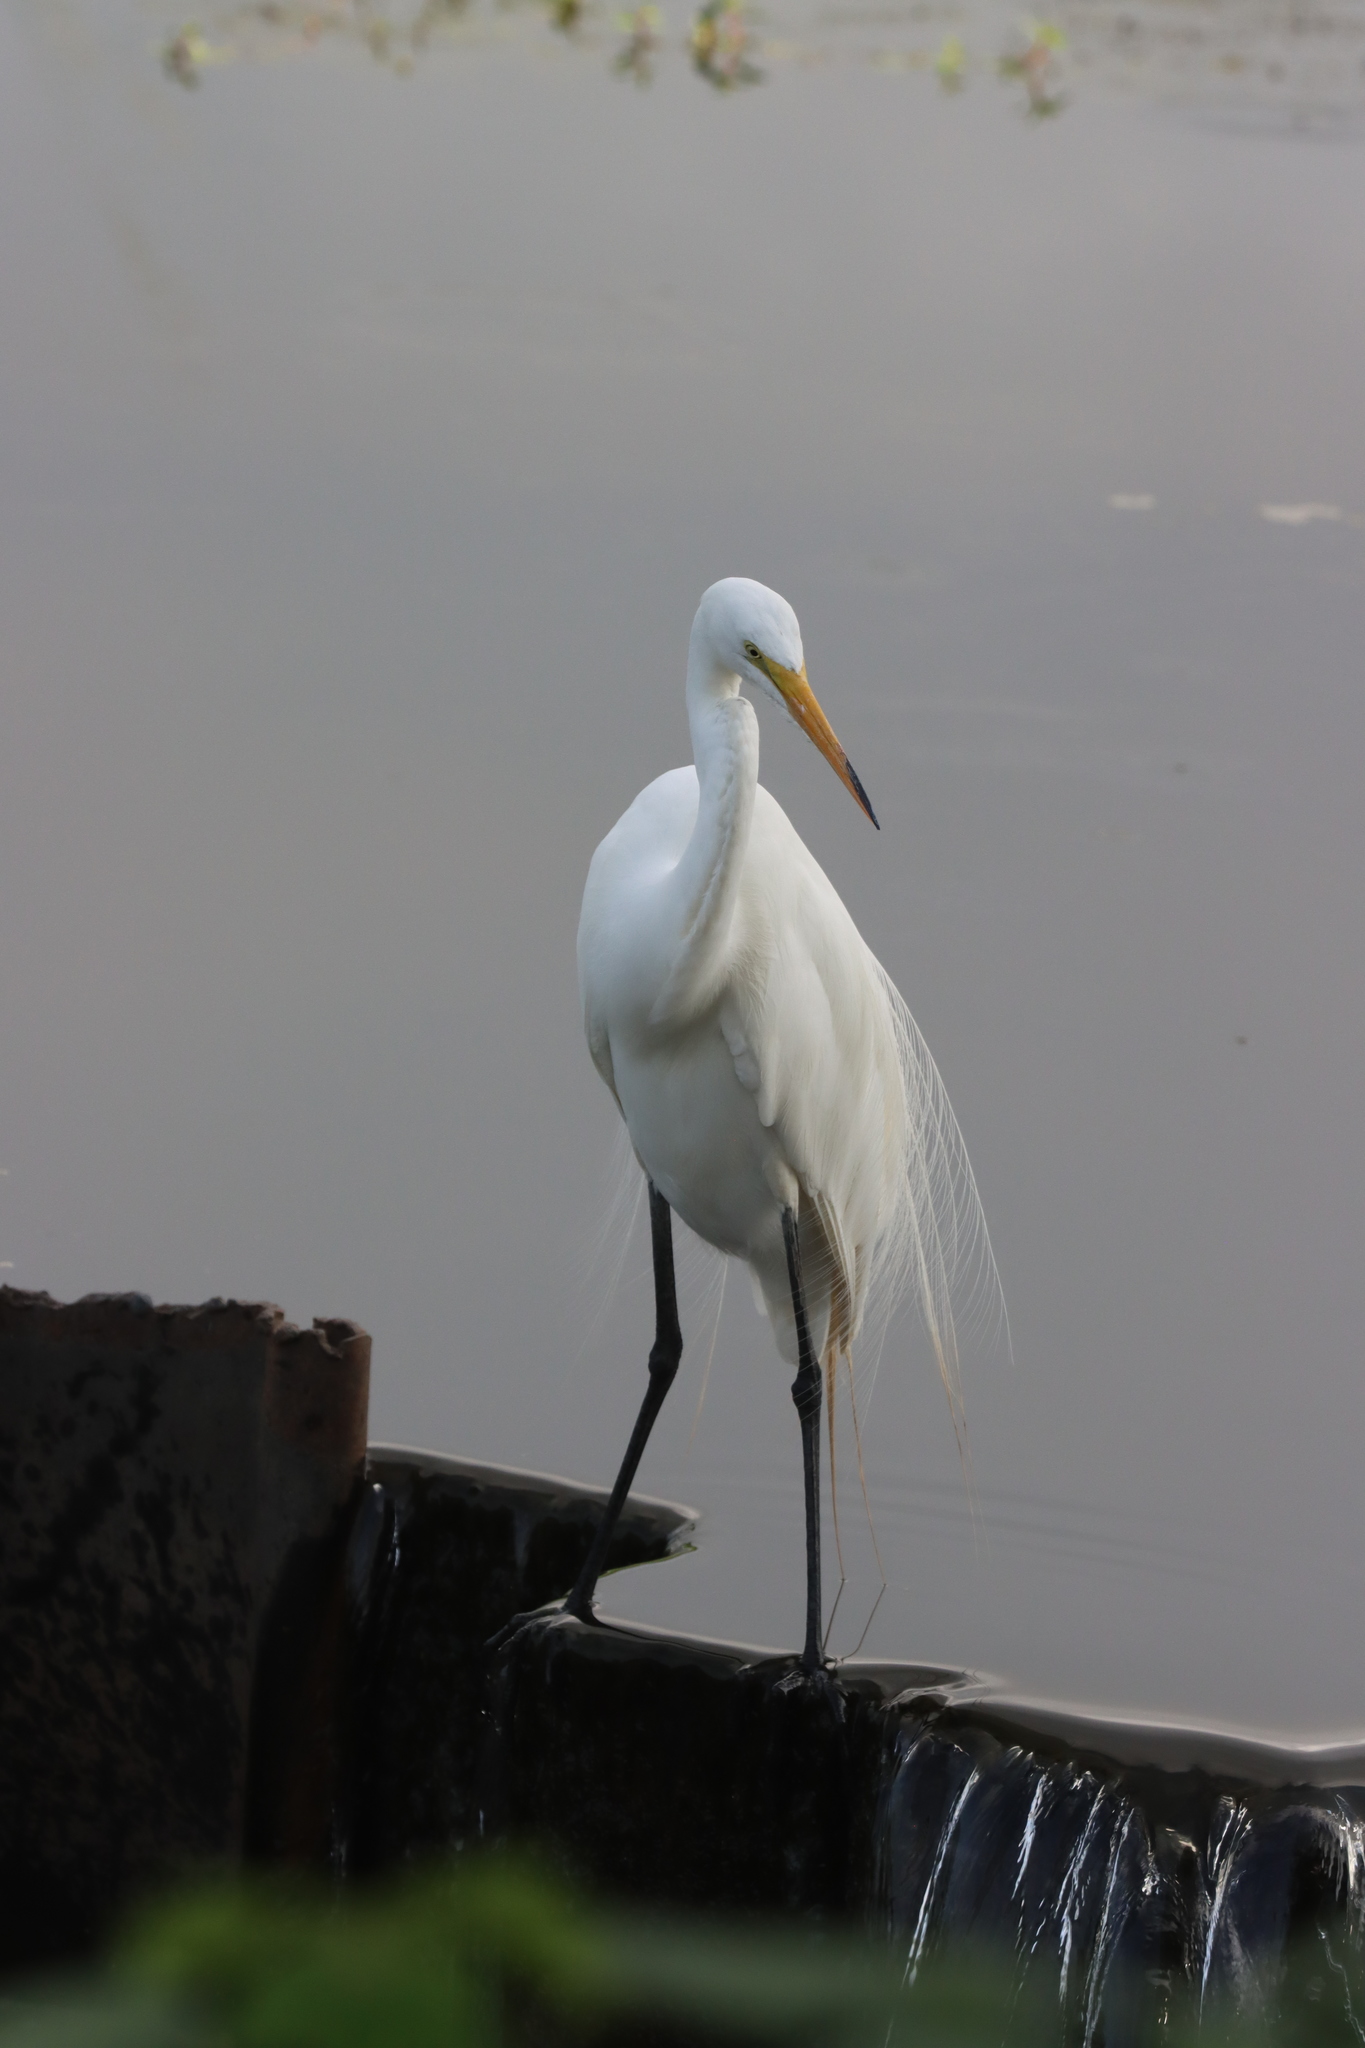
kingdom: Animalia
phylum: Chordata
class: Aves
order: Pelecaniformes
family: Ardeidae
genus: Ardea
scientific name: Ardea alba
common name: Great egret
